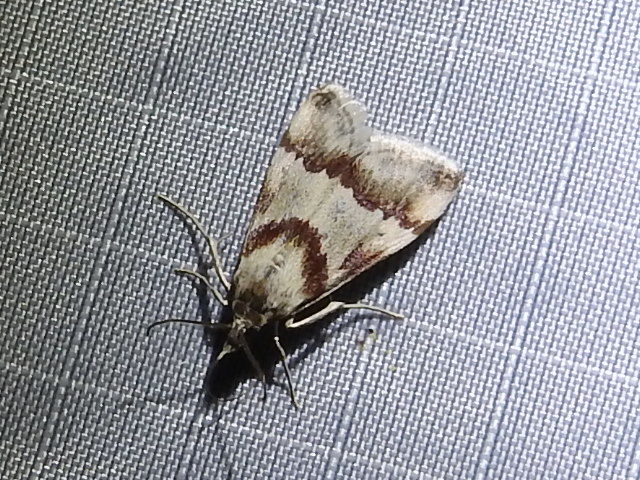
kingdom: Animalia
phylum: Arthropoda
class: Insecta
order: Lepidoptera
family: Crambidae
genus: Noctuelia
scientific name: Noctuelia Mimoschinia rufofascialis
